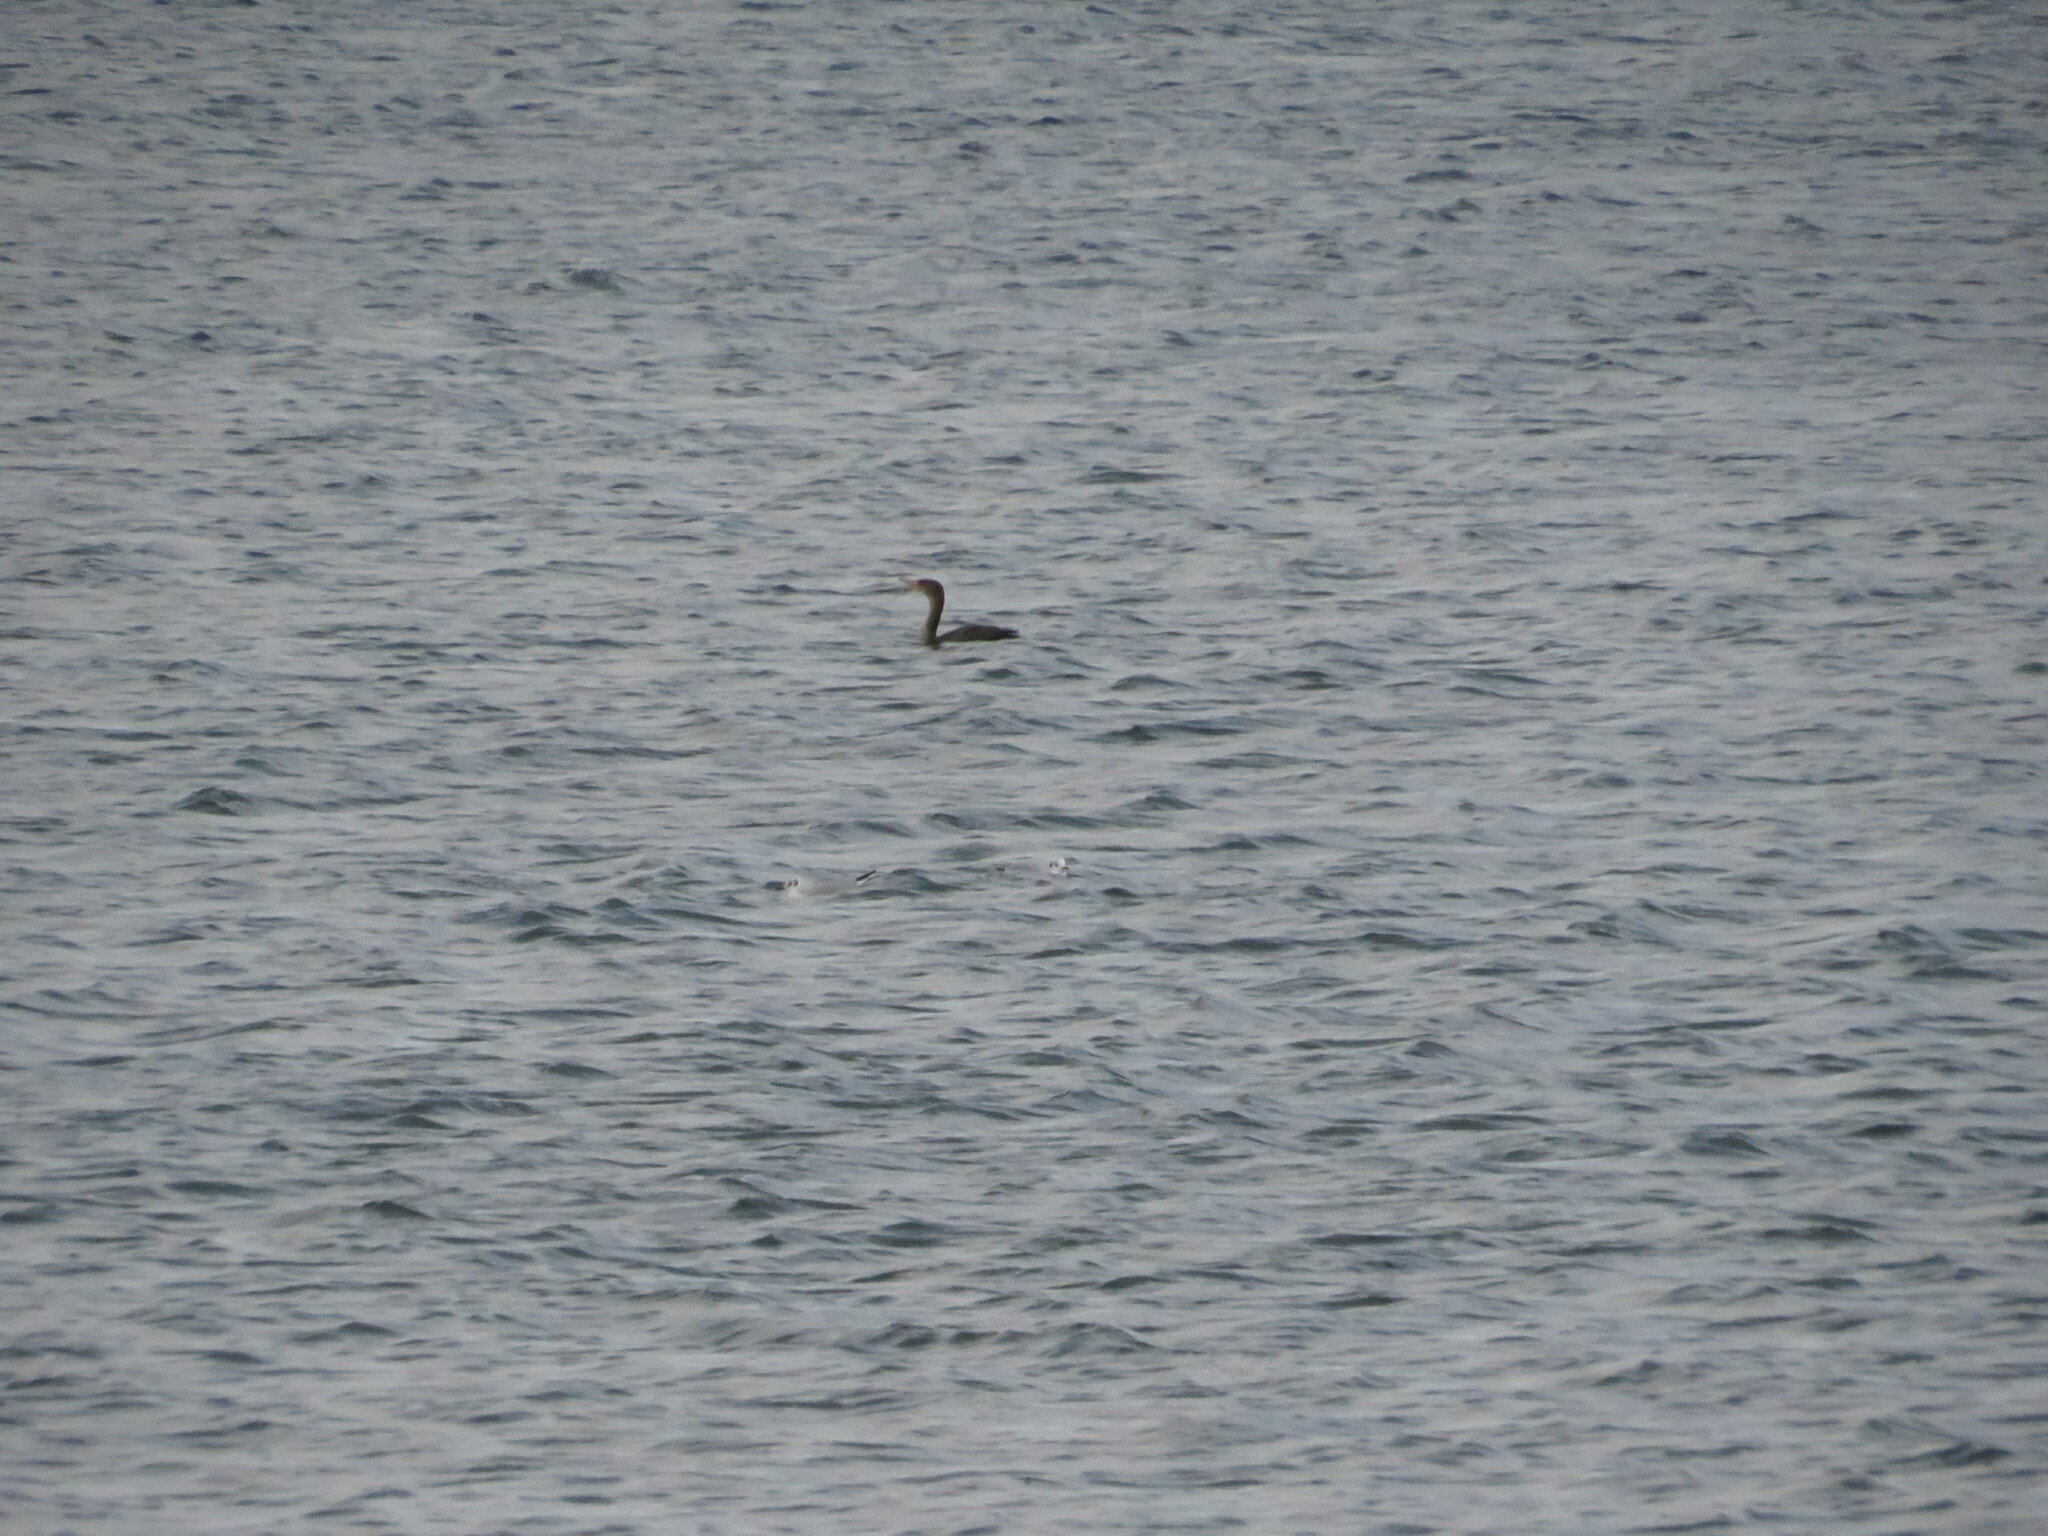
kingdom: Animalia
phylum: Chordata
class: Aves
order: Suliformes
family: Phalacrocoracidae
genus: Phalacrocorax
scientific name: Phalacrocorax auritus
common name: Double-crested cormorant
